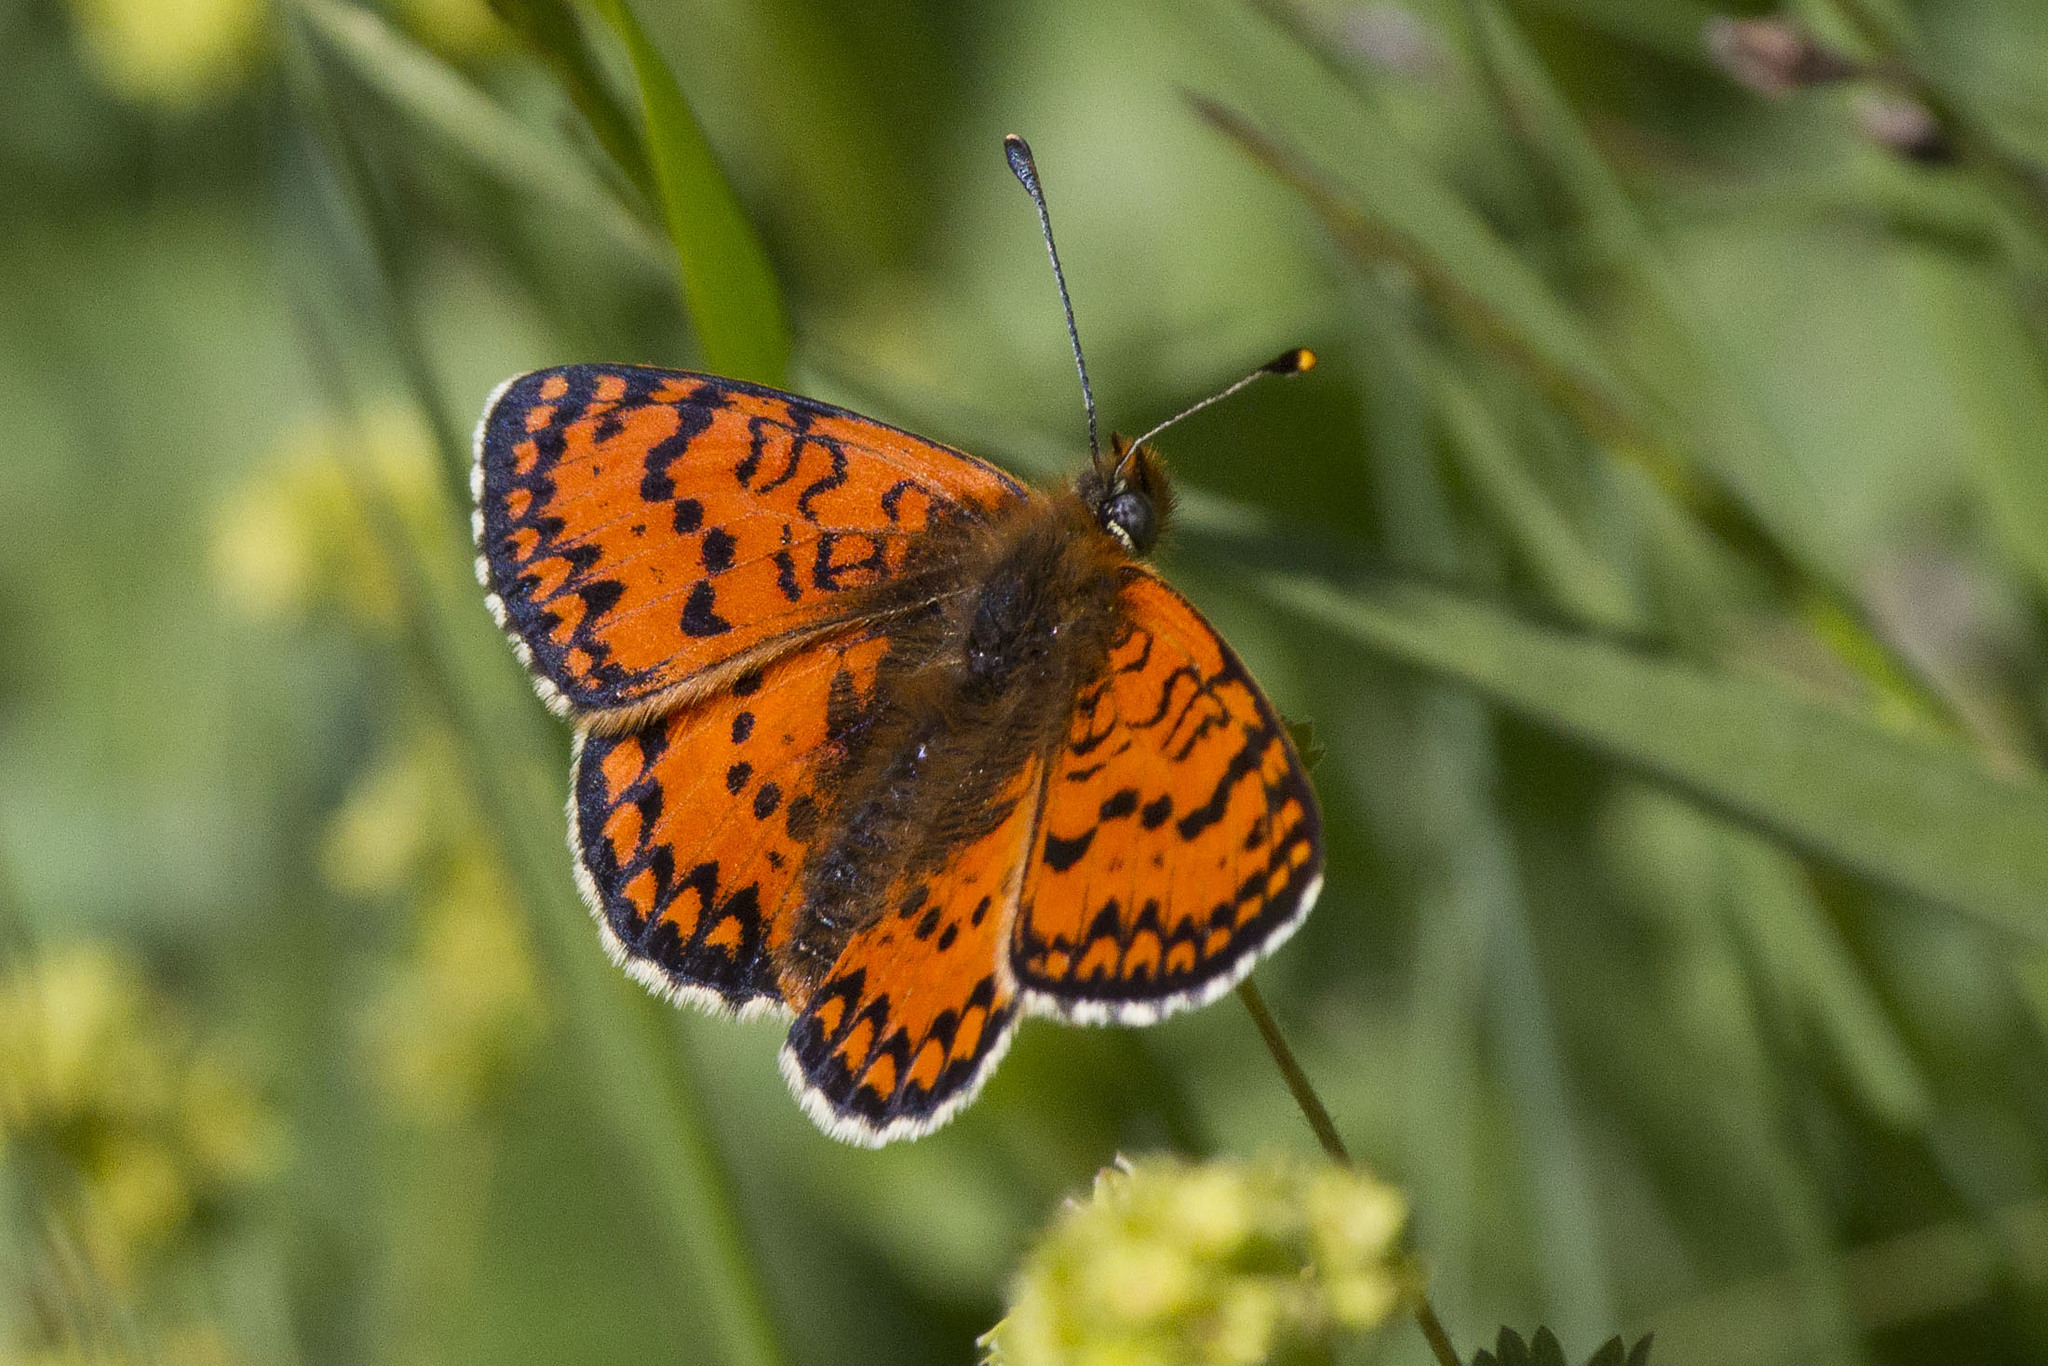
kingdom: Animalia
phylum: Arthropoda
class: Insecta
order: Lepidoptera
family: Nymphalidae
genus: Melitaea
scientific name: Melitaea cinxia
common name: Glanville fritillary
